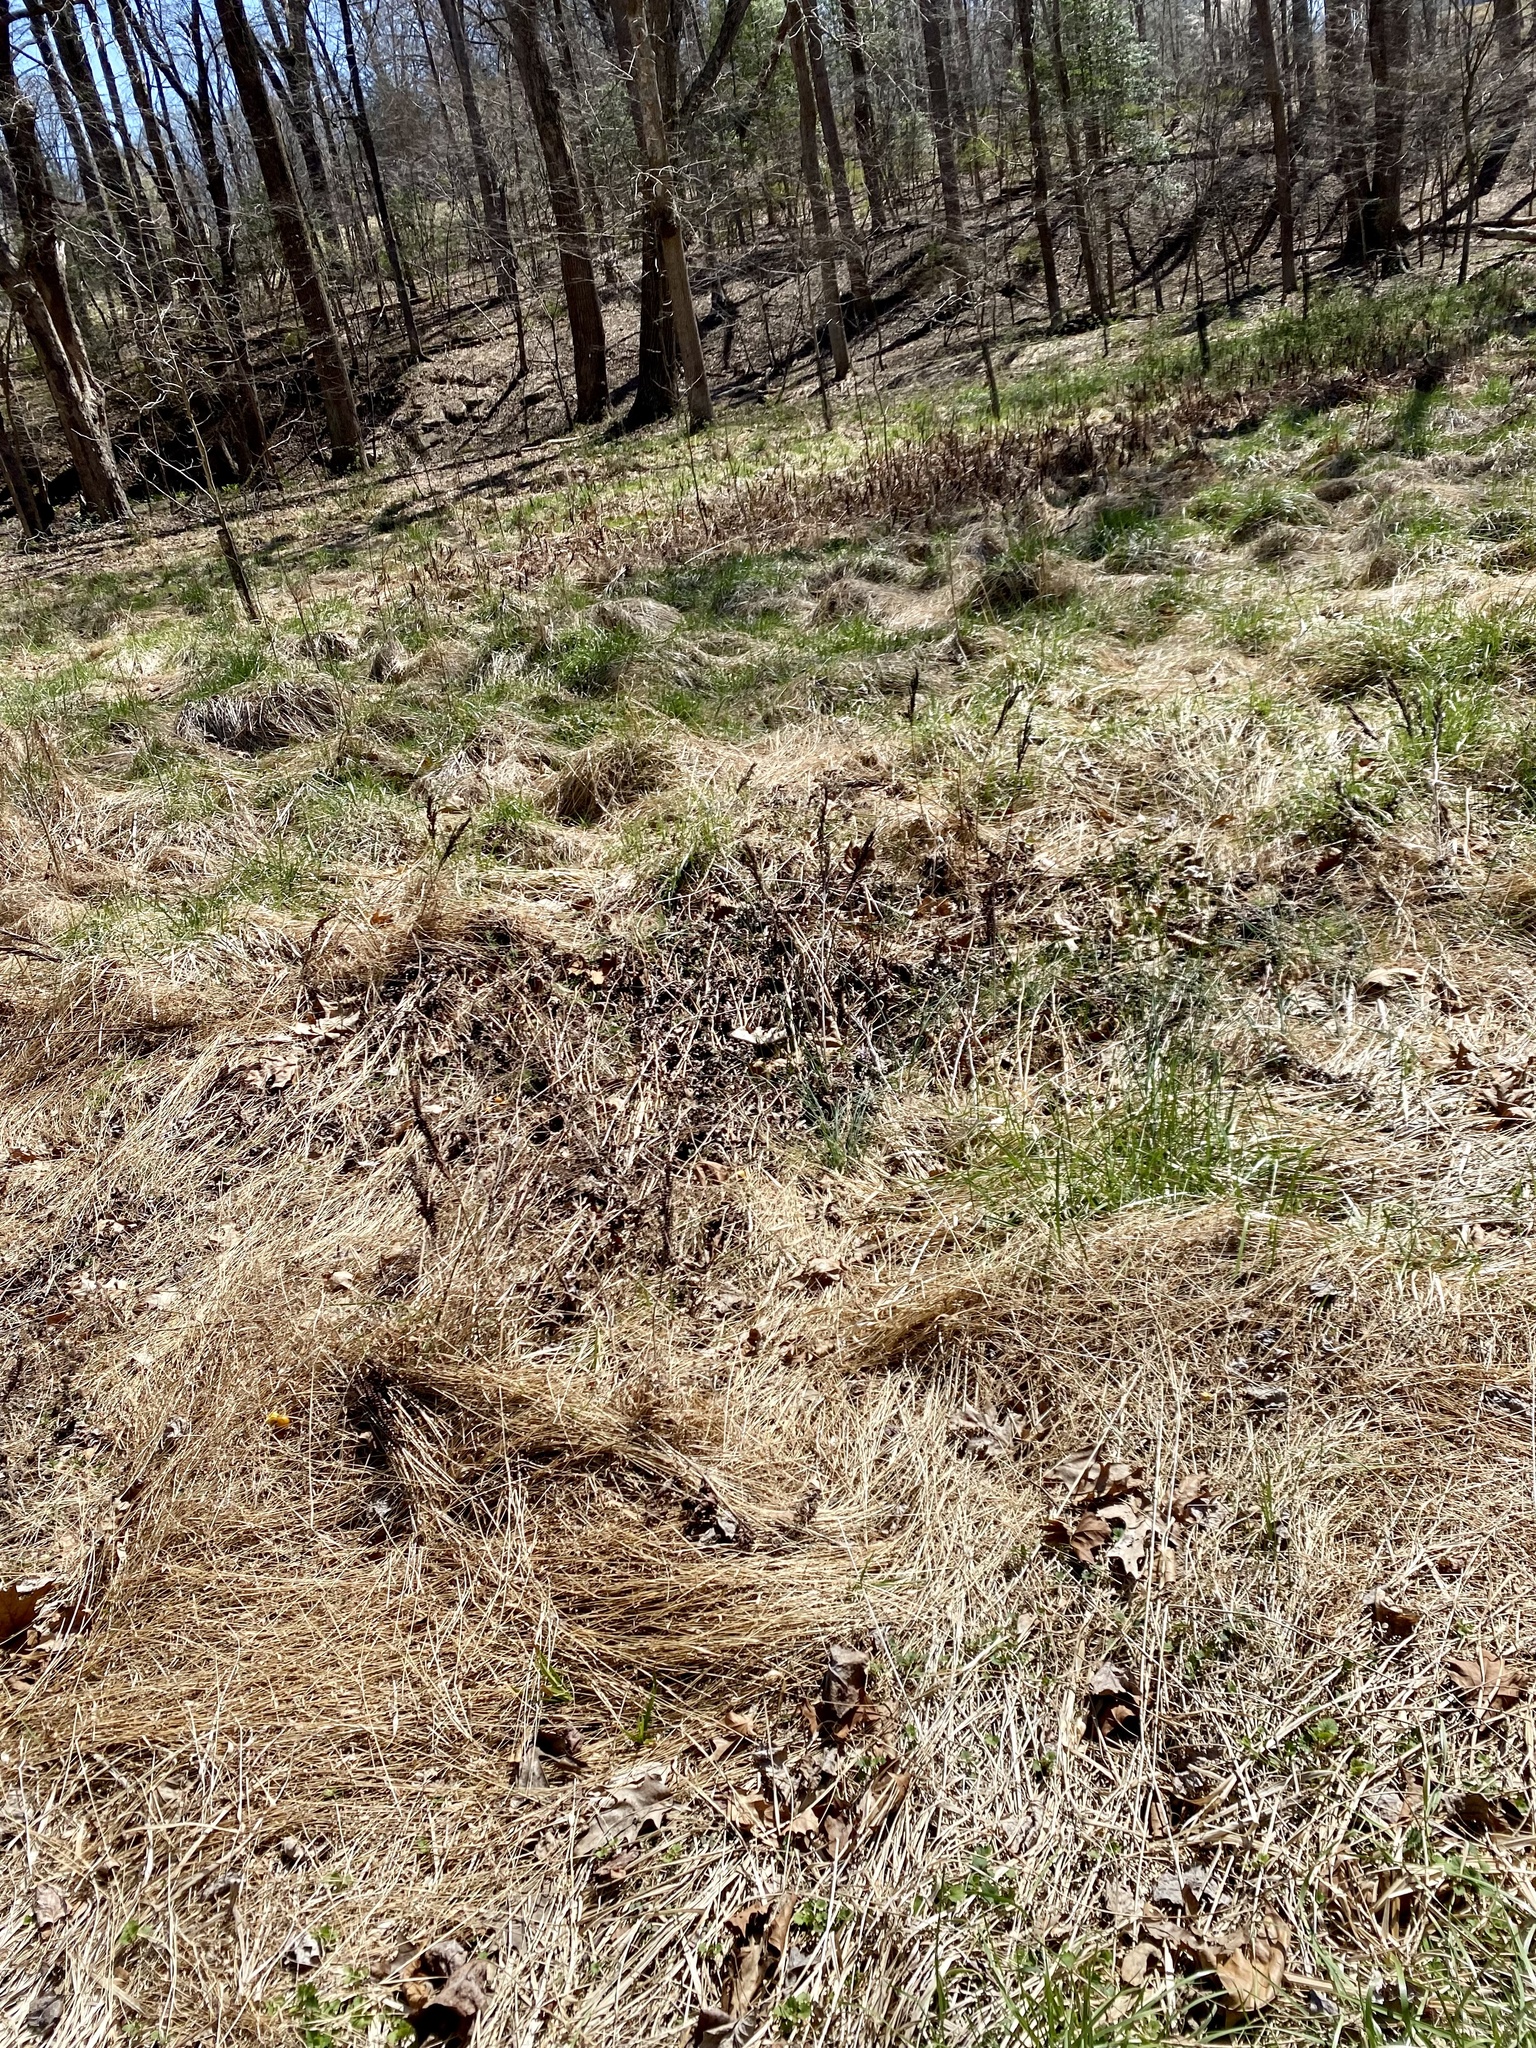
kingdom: Plantae
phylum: Tracheophyta
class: Polypodiopsida
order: Polypodiales
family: Onocleaceae
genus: Onoclea
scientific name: Onoclea sensibilis
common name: Sensitive fern
